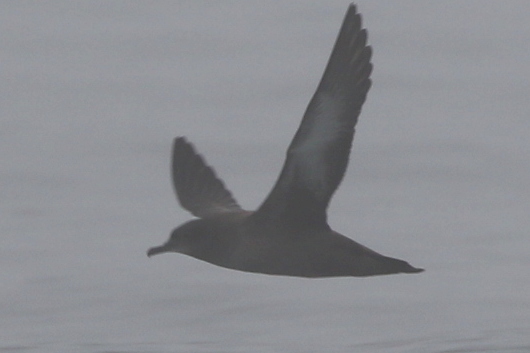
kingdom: Animalia
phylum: Chordata
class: Aves
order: Procellariiformes
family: Procellariidae
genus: Puffinus
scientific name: Puffinus griseus
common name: Sooty shearwater
